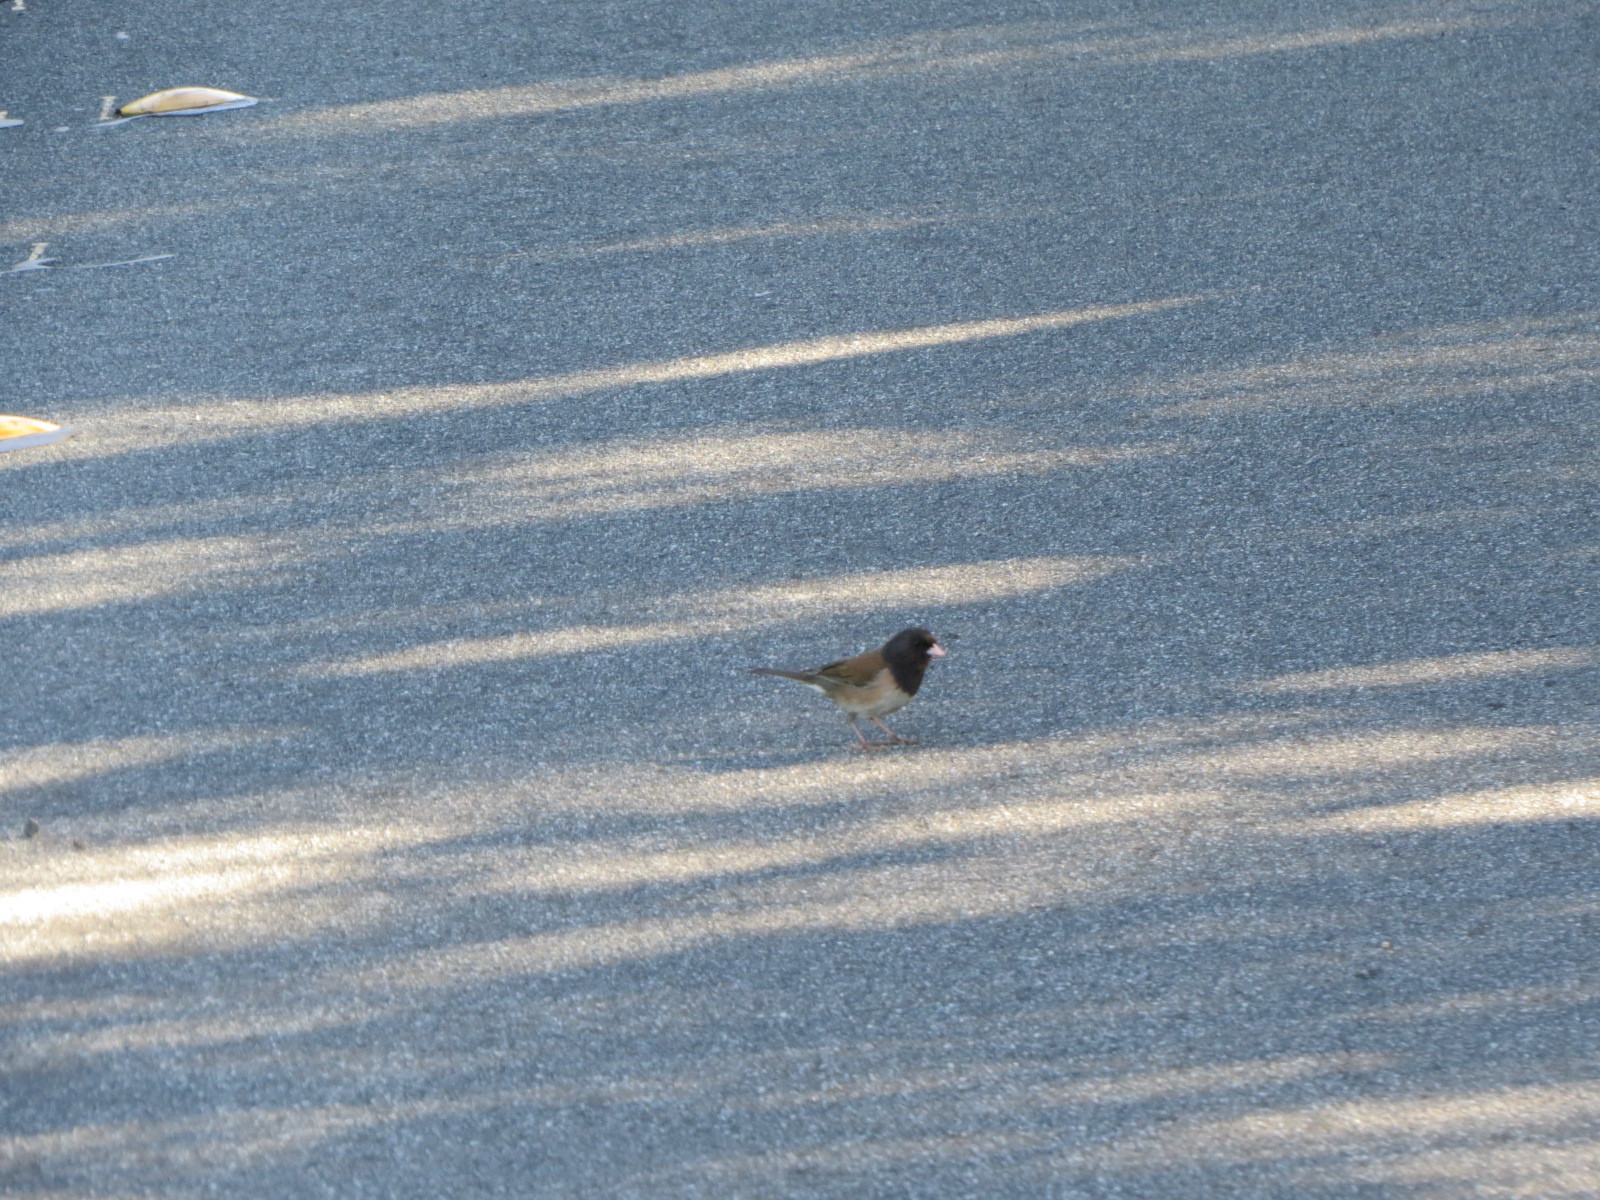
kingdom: Animalia
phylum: Chordata
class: Aves
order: Passeriformes
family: Passerellidae
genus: Junco
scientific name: Junco hyemalis
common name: Dark-eyed junco
